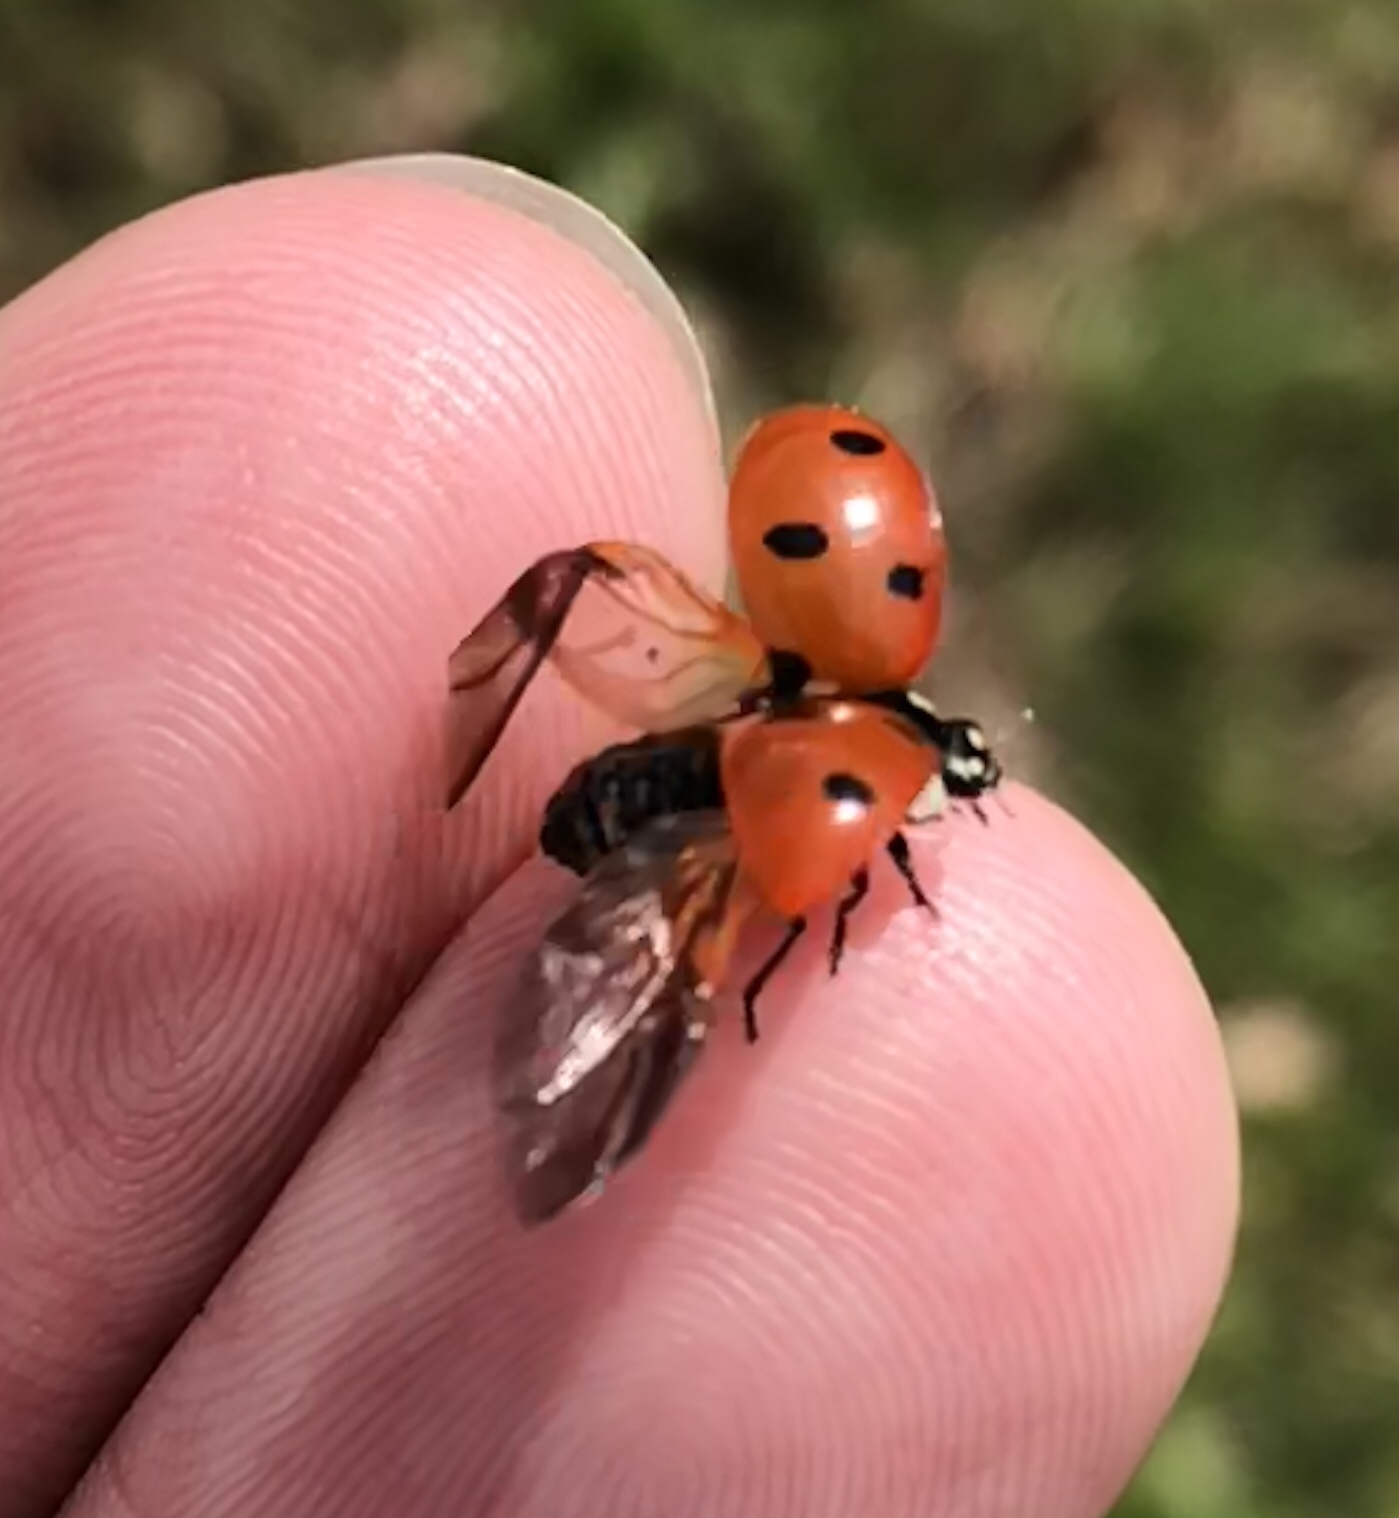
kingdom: Animalia
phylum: Arthropoda
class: Insecta
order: Coleoptera
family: Coccinellidae
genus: Coccinella
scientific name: Coccinella septempunctata
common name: Sevenspotted lady beetle
